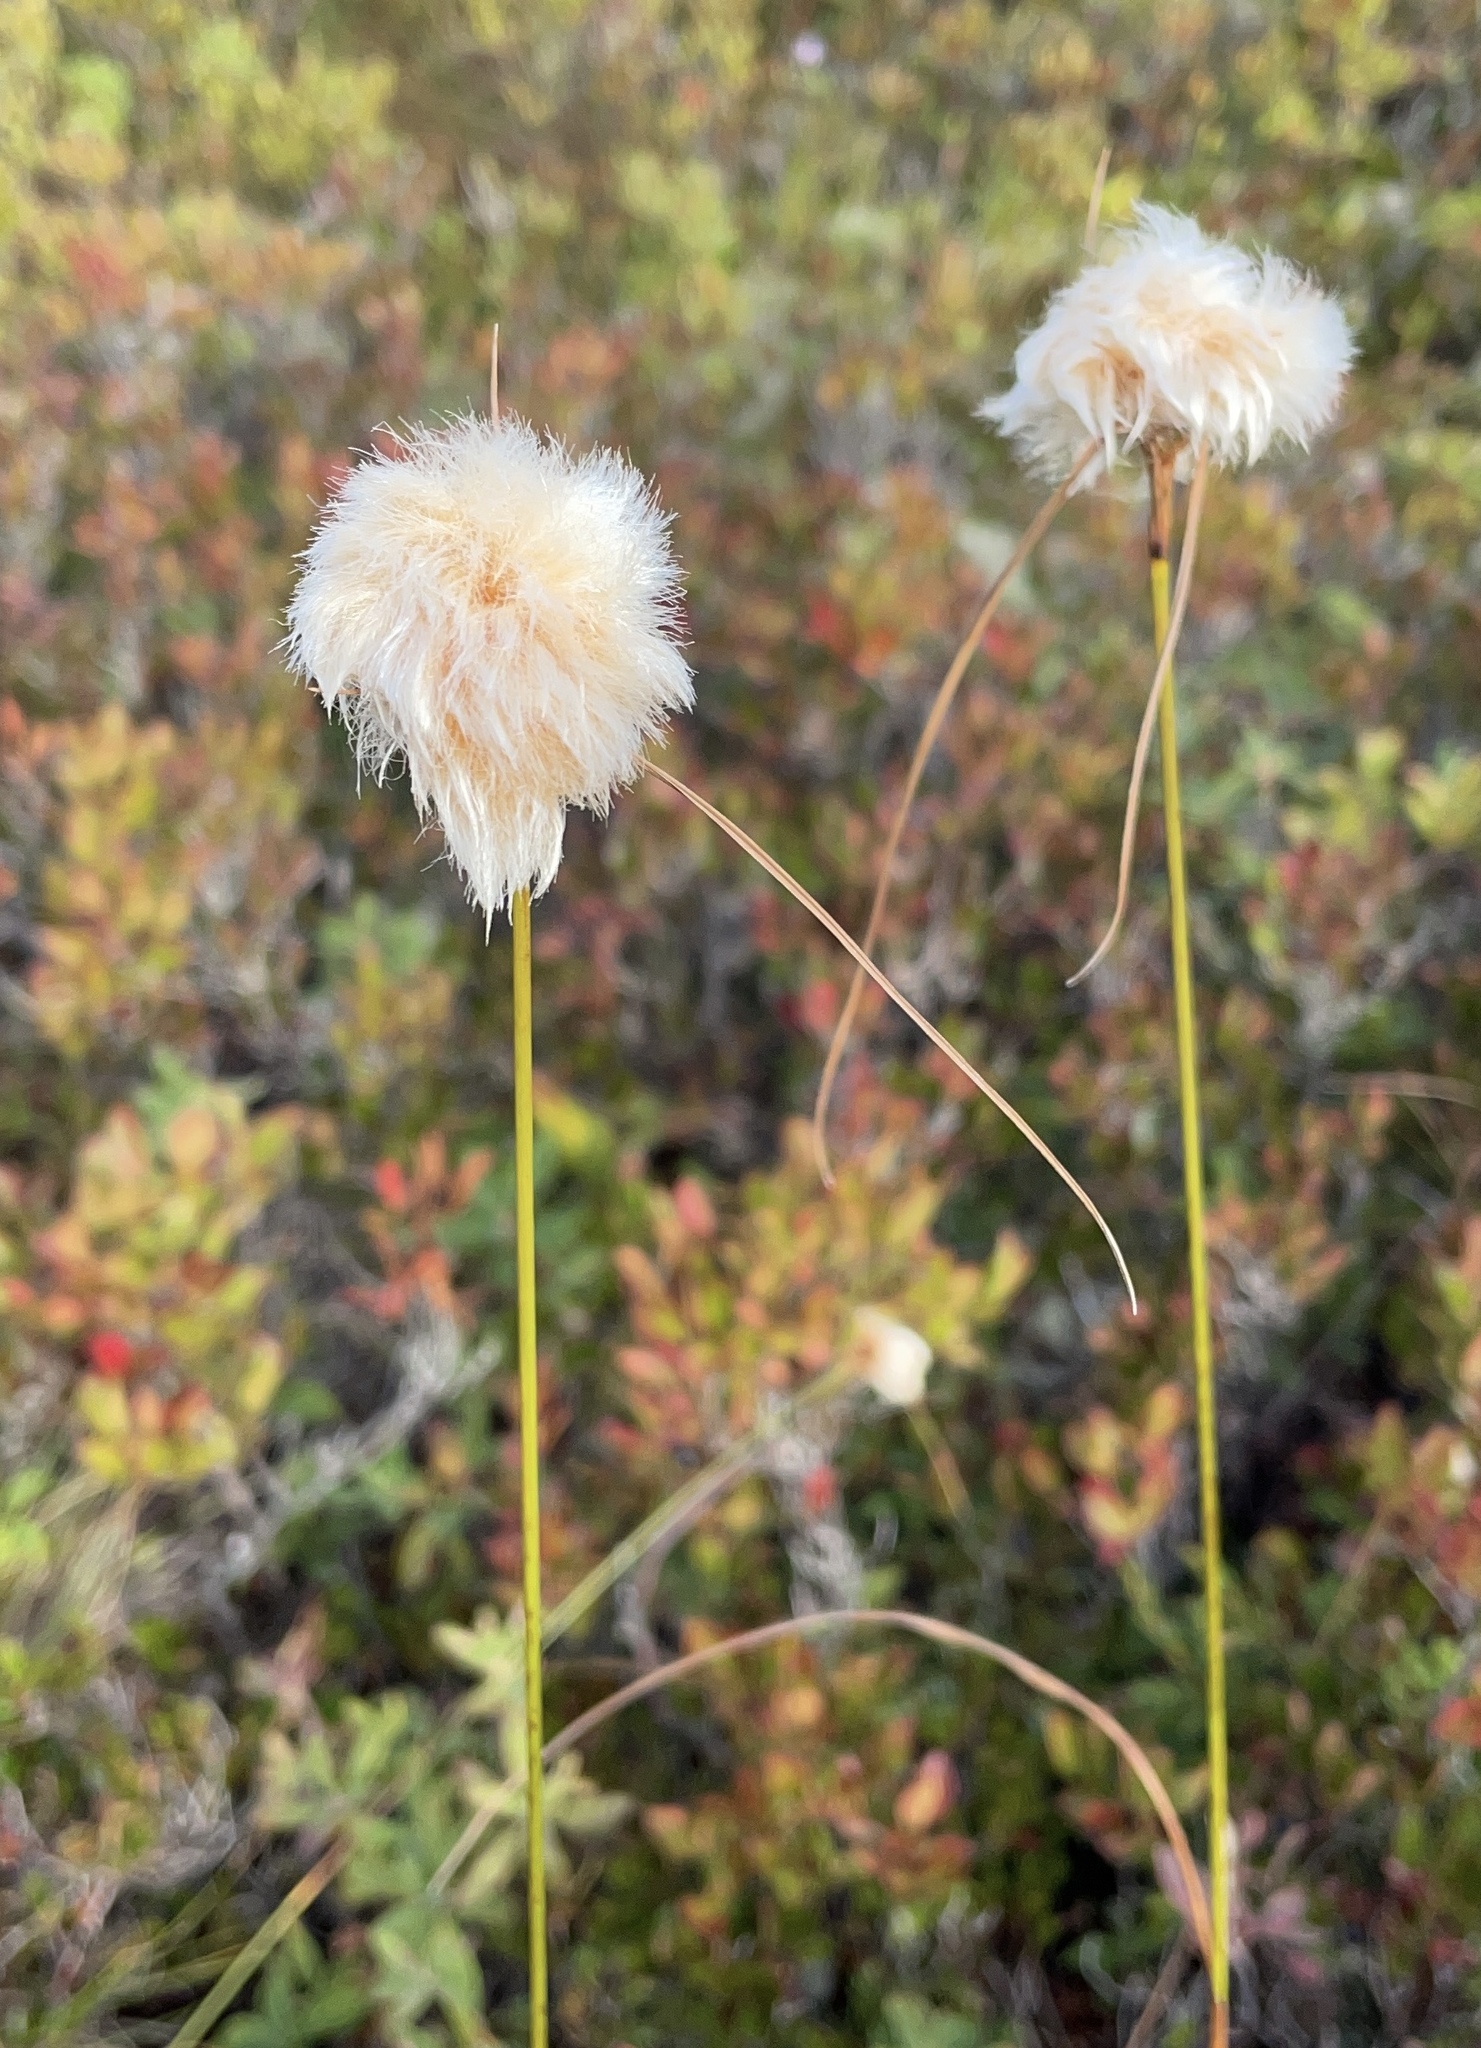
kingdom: Plantae
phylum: Tracheophyta
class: Liliopsida
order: Poales
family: Cyperaceae
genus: Eriophorum
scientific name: Eriophorum virginicum
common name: Tawny cottongrass
